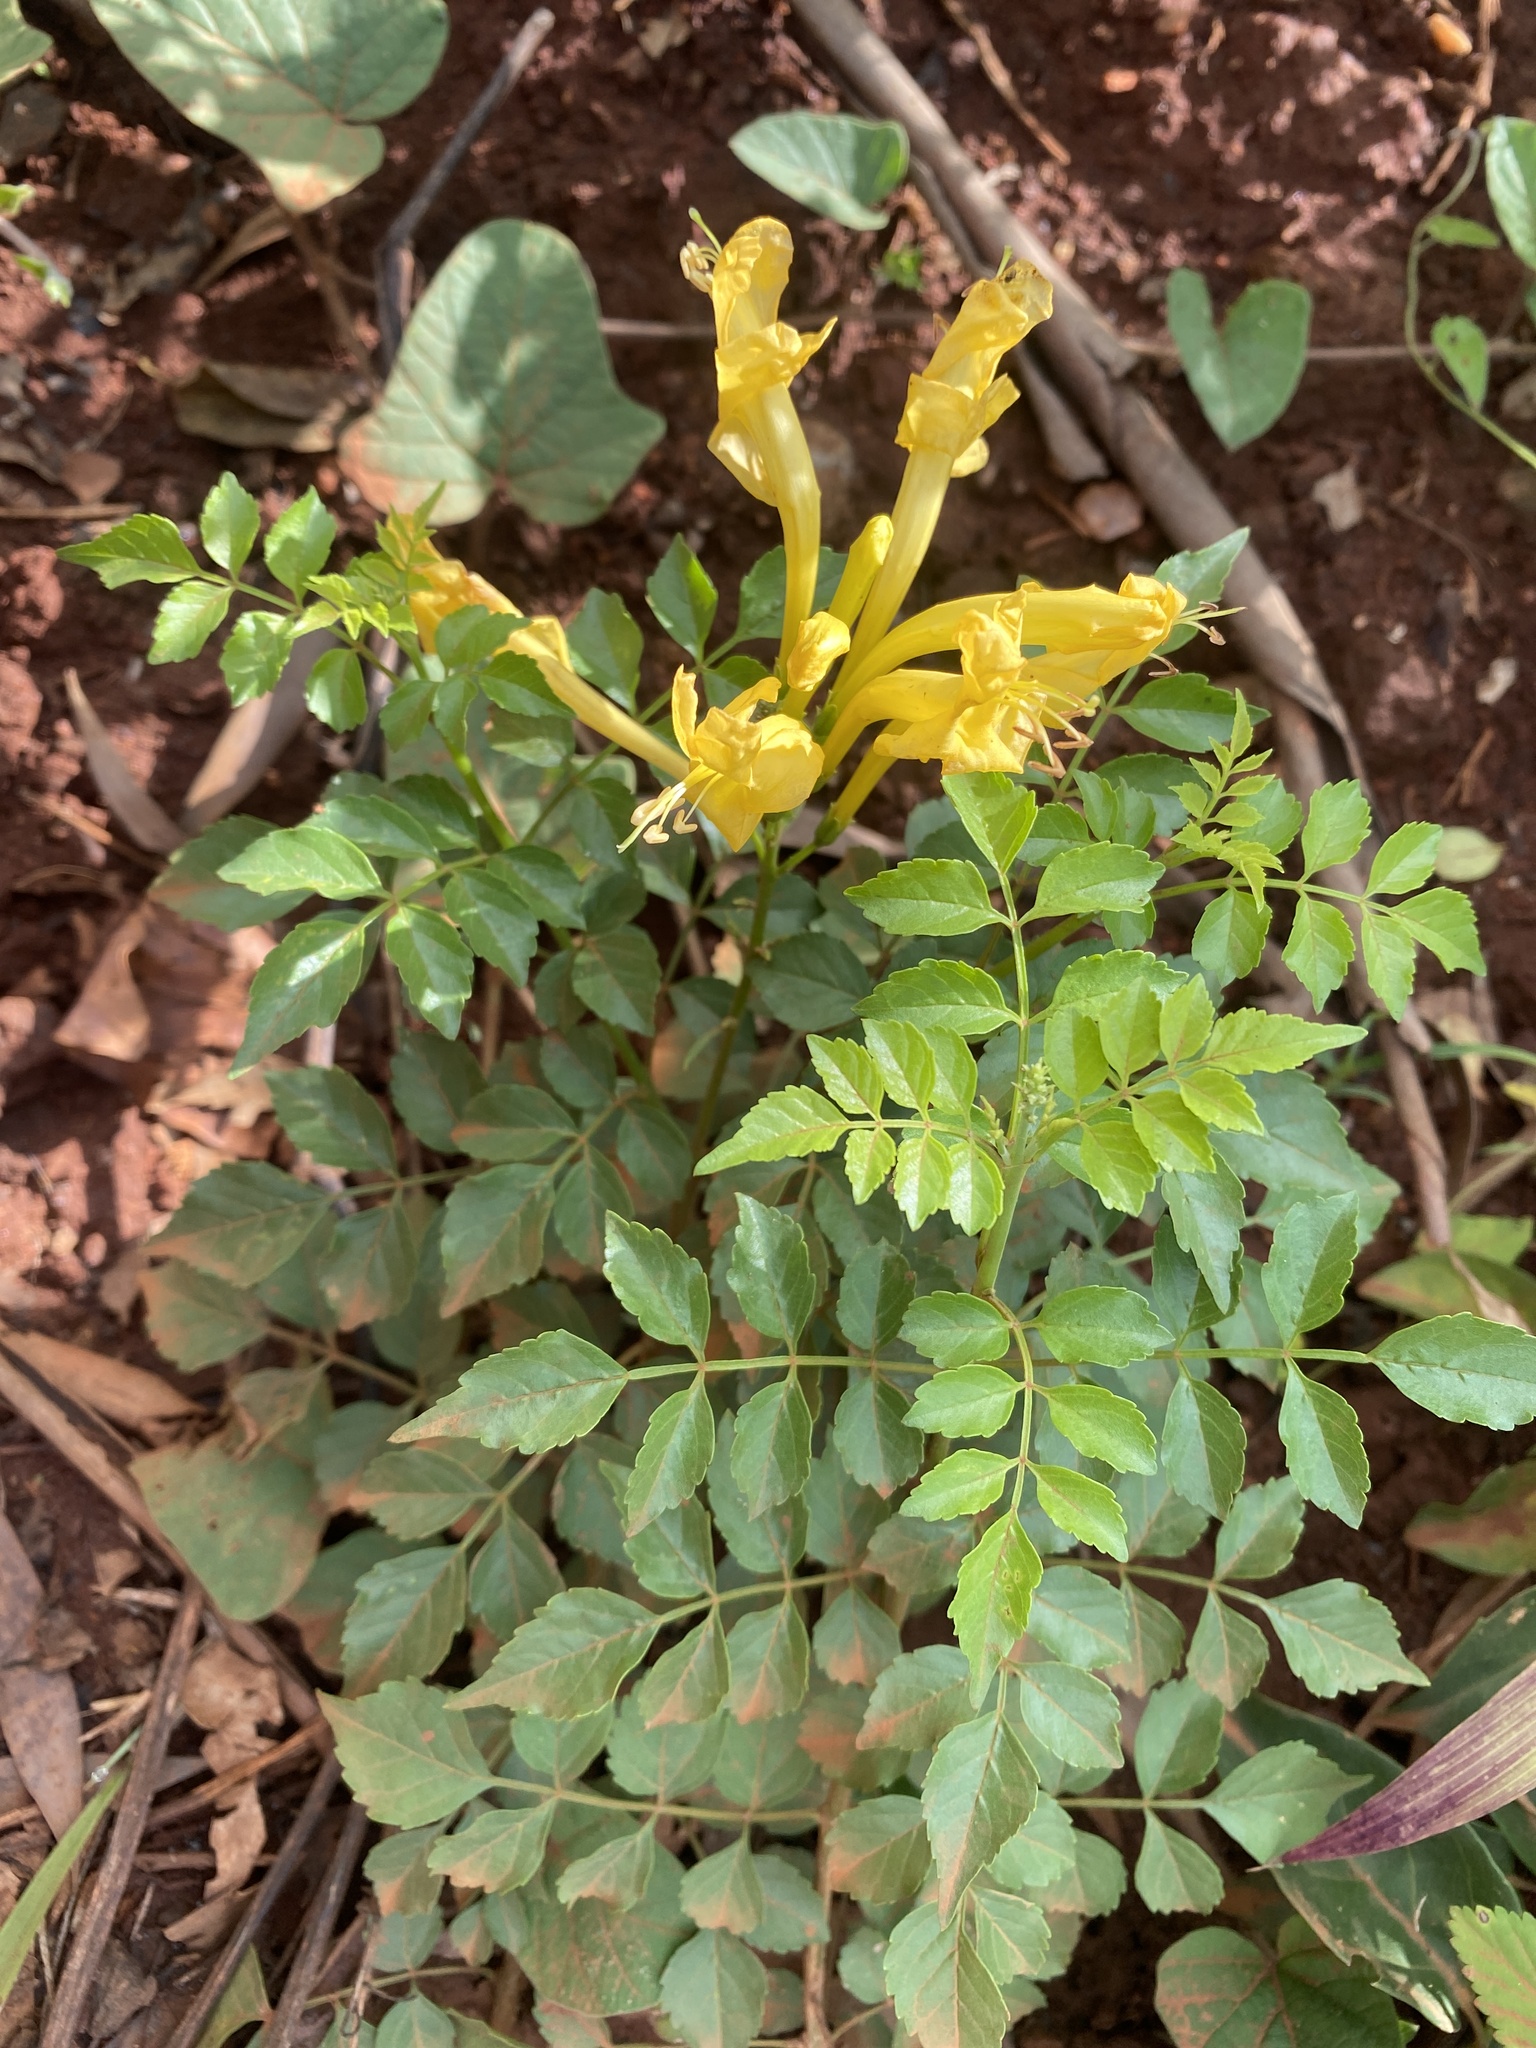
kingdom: Plantae
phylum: Tracheophyta
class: Magnoliopsida
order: Lamiales
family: Bignoniaceae
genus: Tecomaria
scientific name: Tecomaria capensis
